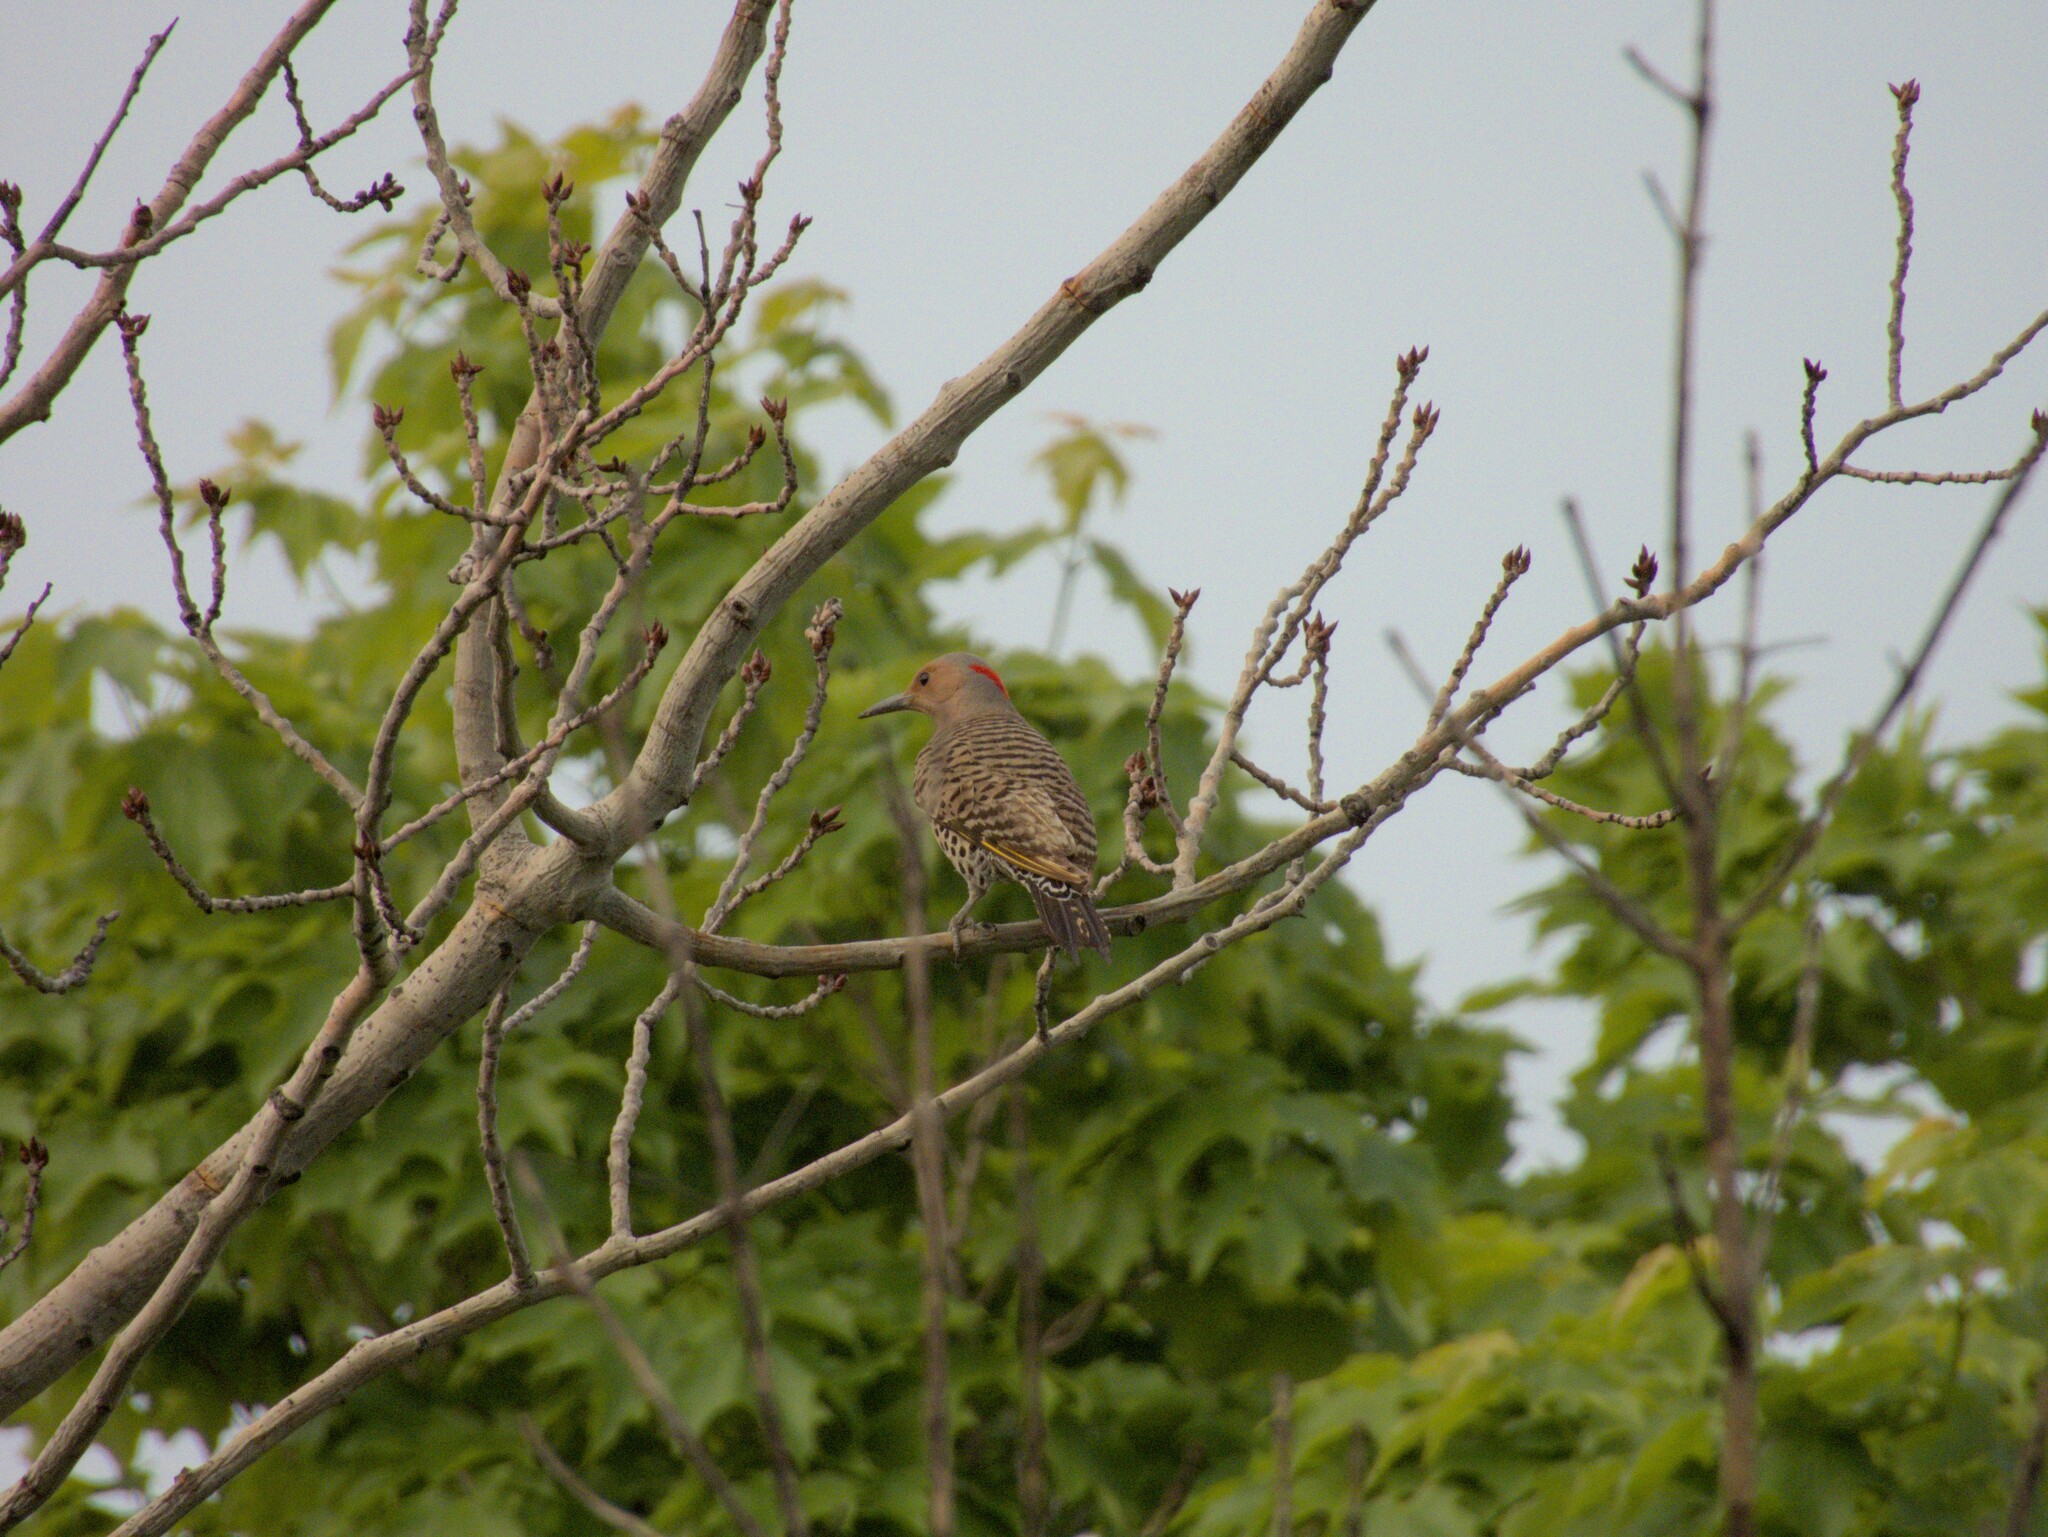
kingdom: Animalia
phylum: Chordata
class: Aves
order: Piciformes
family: Picidae
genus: Colaptes
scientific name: Colaptes auratus
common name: Northern flicker
